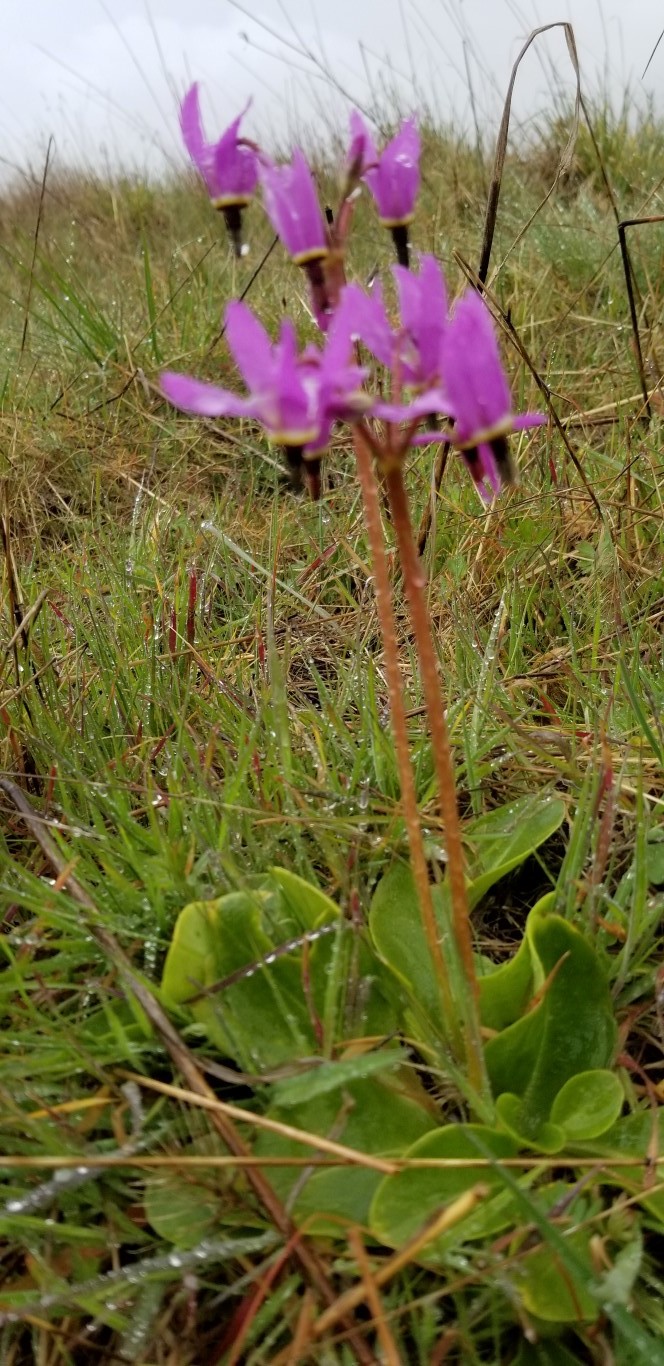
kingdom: Plantae
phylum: Tracheophyta
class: Magnoliopsida
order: Ericales
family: Primulaceae
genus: Dodecatheon
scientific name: Dodecatheon hendersonii
